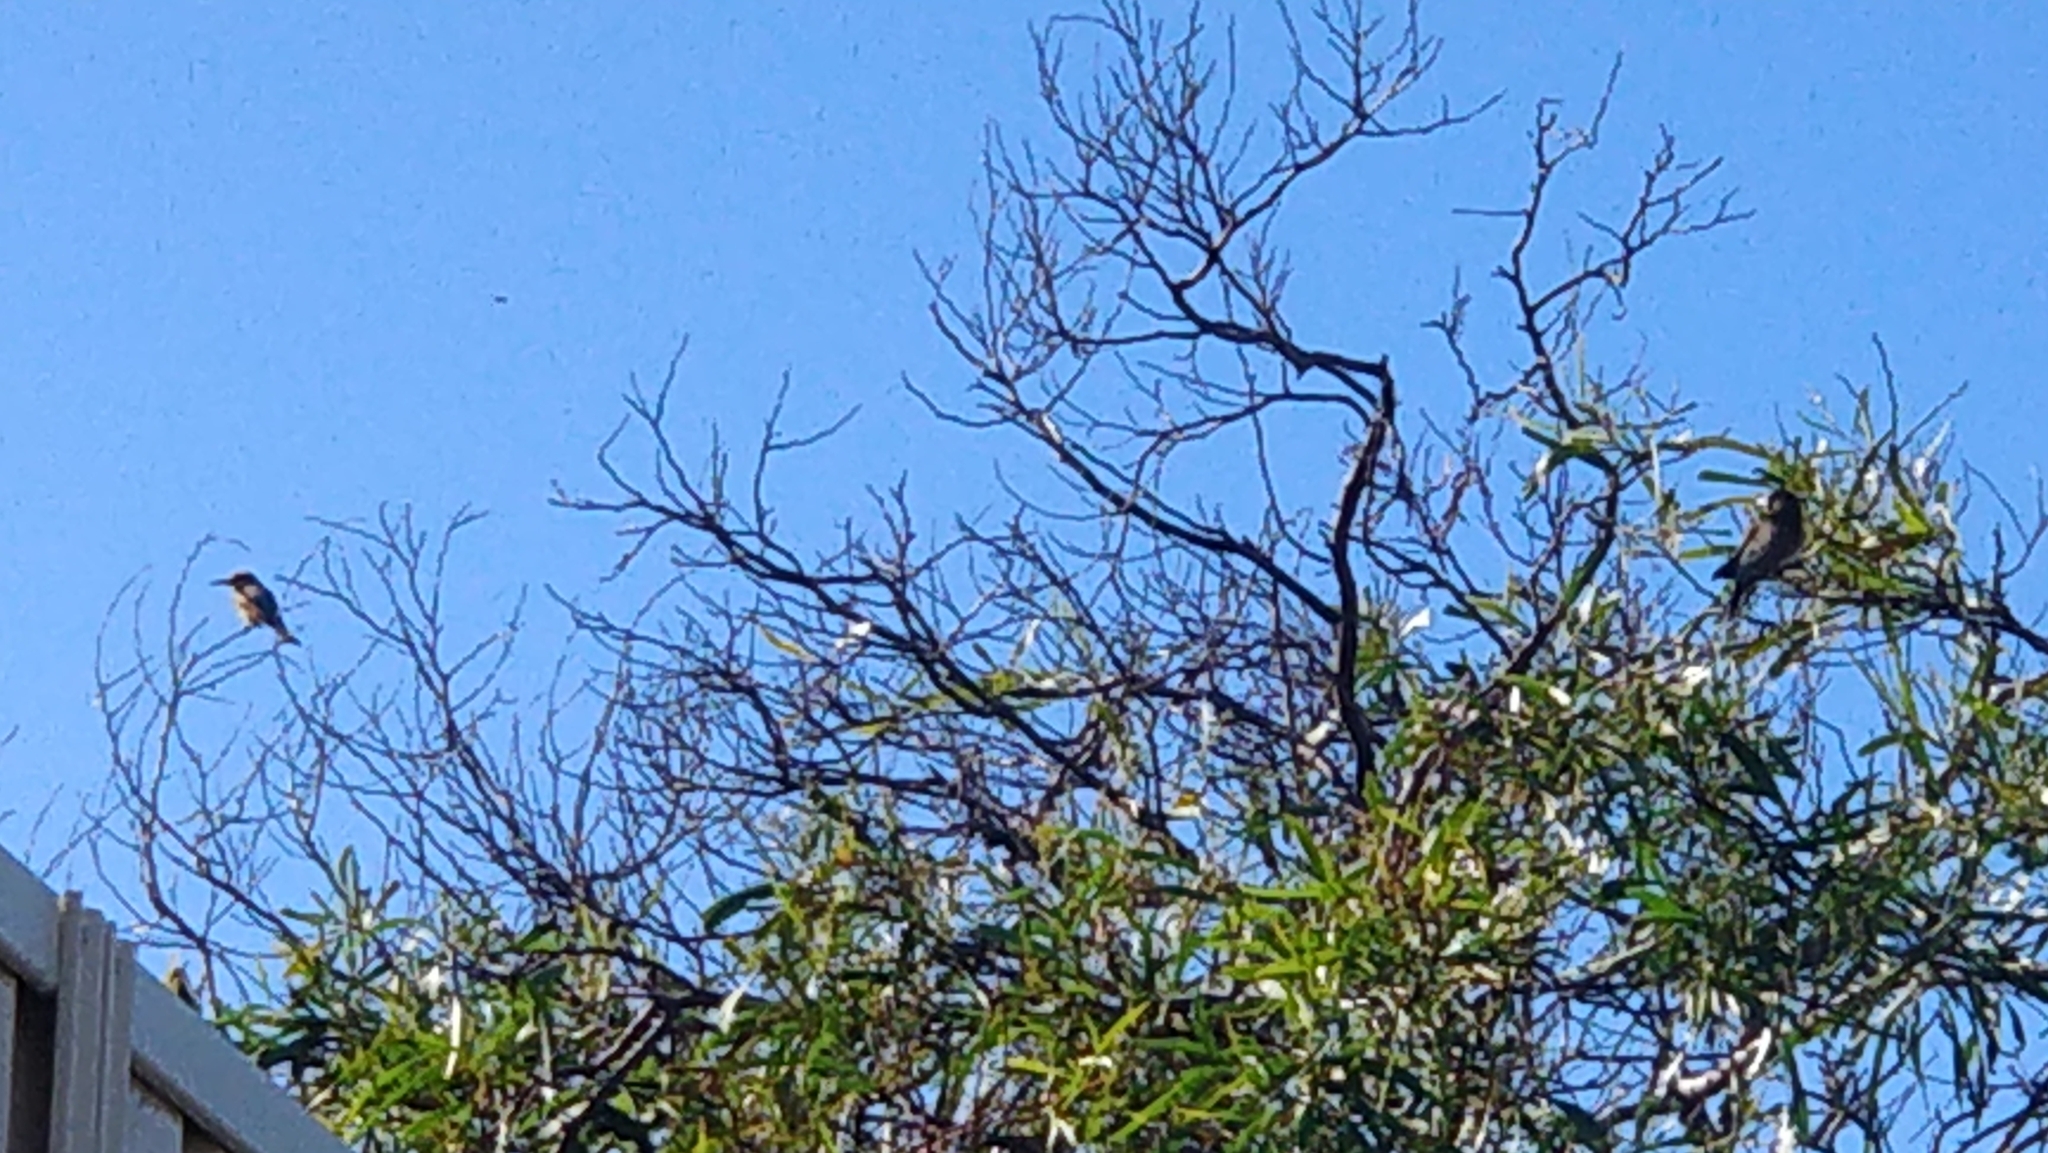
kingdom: Animalia
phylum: Chordata
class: Aves
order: Coraciiformes
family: Meropidae
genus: Merops
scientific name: Merops ornatus
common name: Rainbow bee-eater
